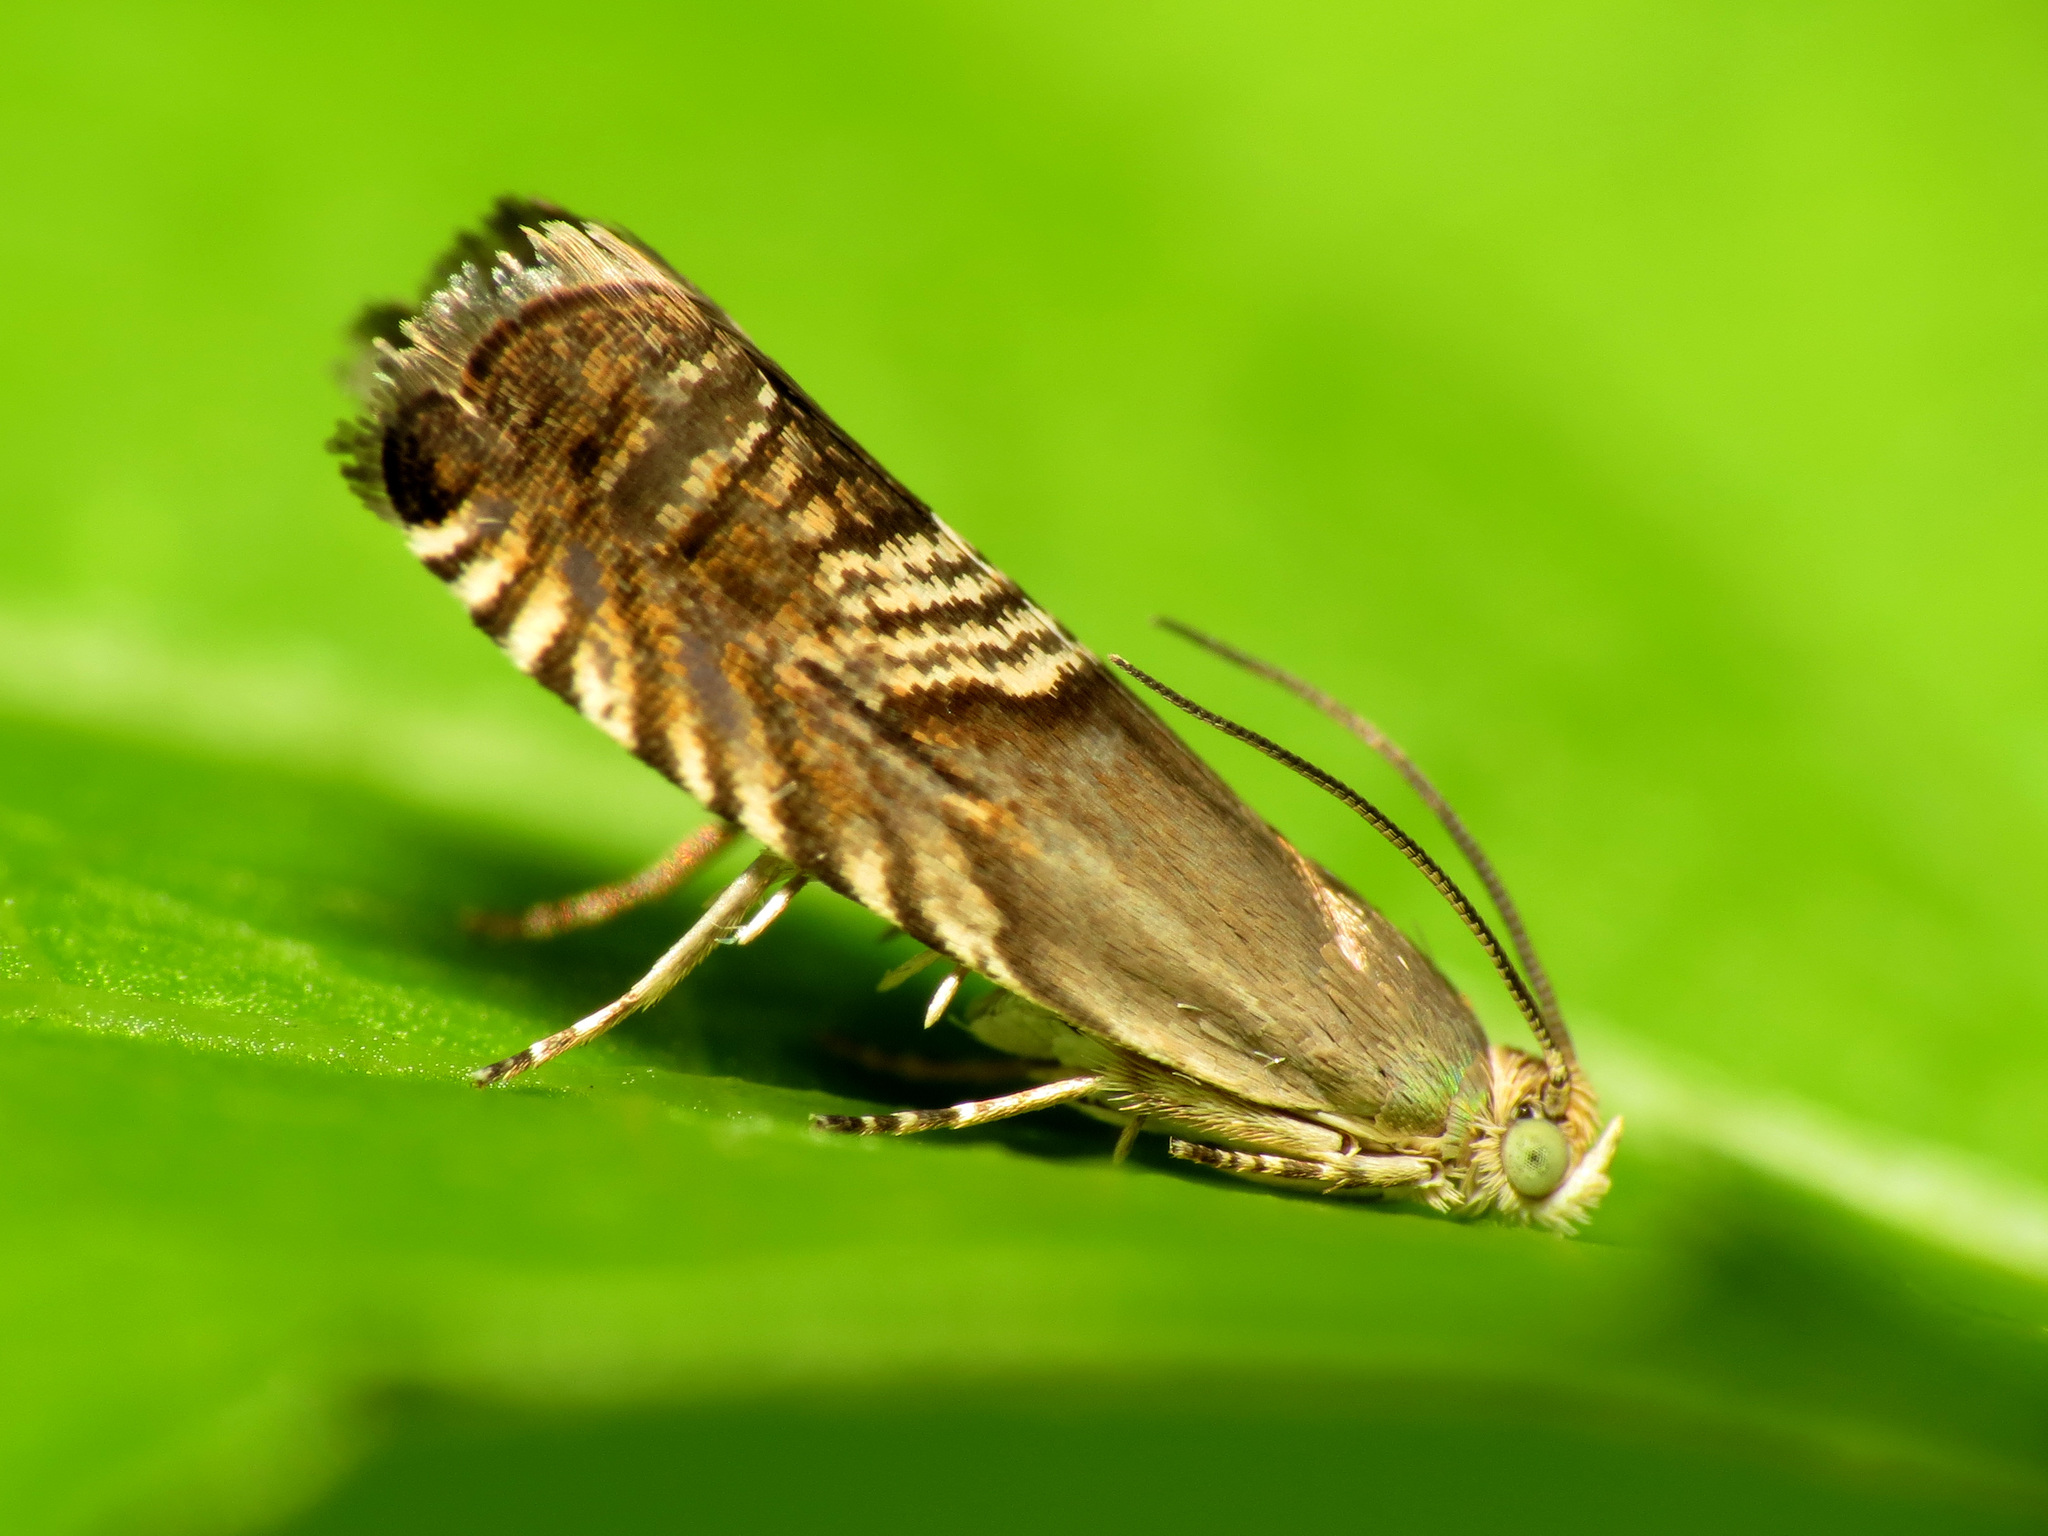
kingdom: Animalia
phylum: Arthropoda
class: Insecta
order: Lepidoptera
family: Tortricidae
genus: Grapholita
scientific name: Grapholita tristrigana
